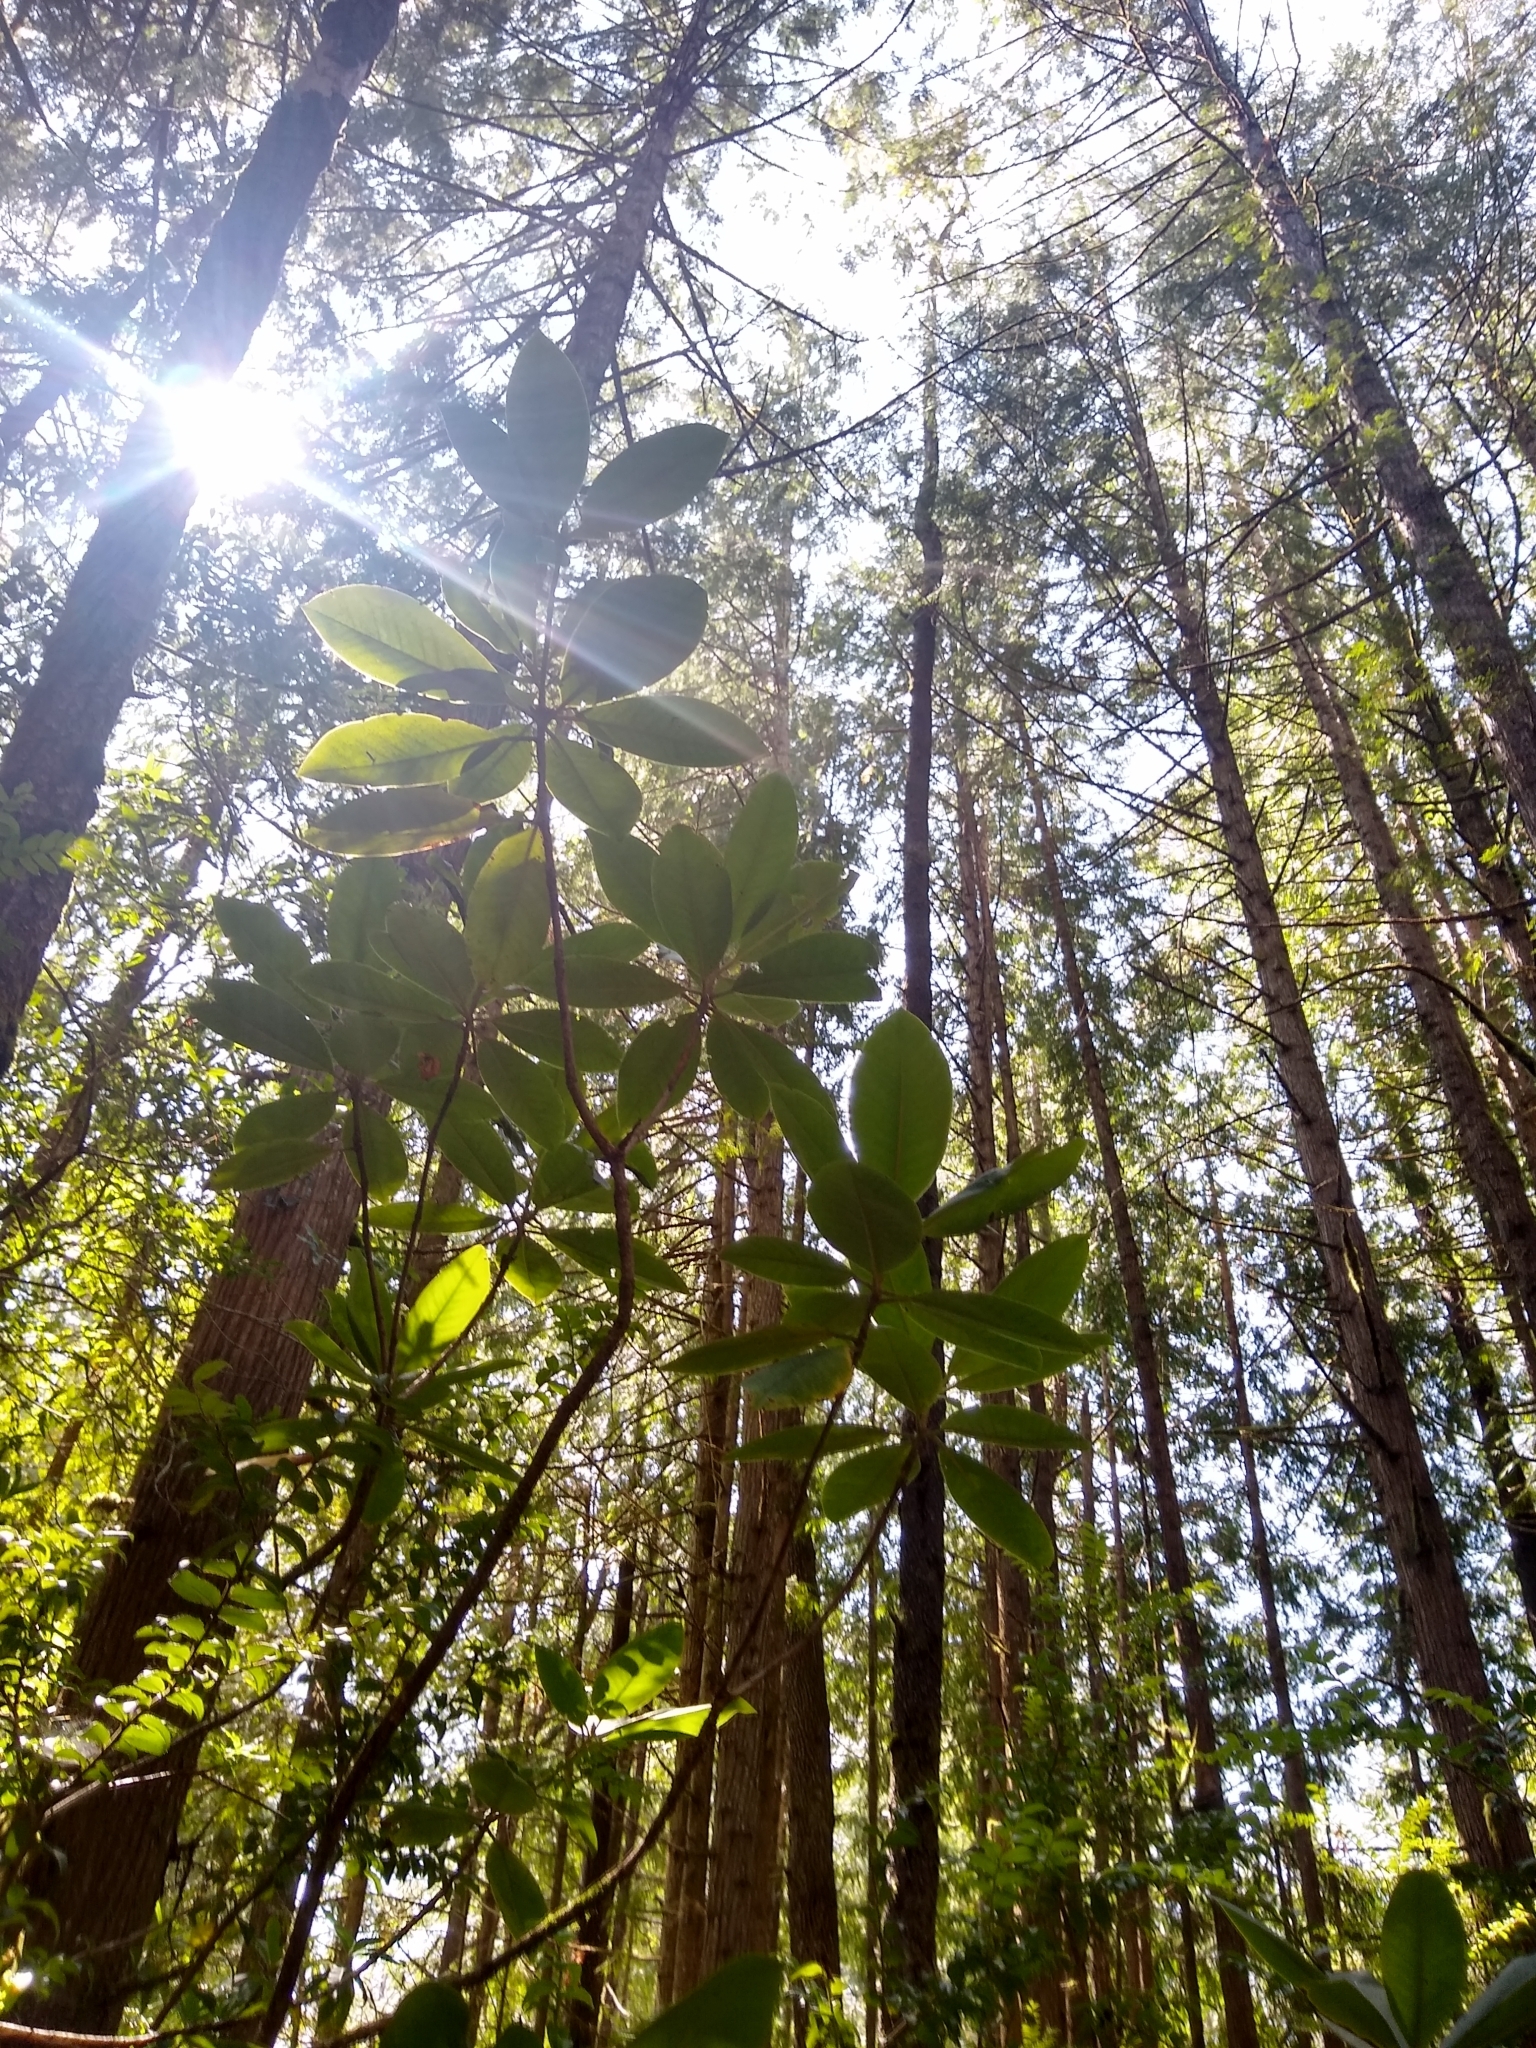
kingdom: Plantae
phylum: Tracheophyta
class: Magnoliopsida
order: Ericales
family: Ericaceae
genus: Rhododendron
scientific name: Rhododendron macrophyllum
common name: California rose bay
